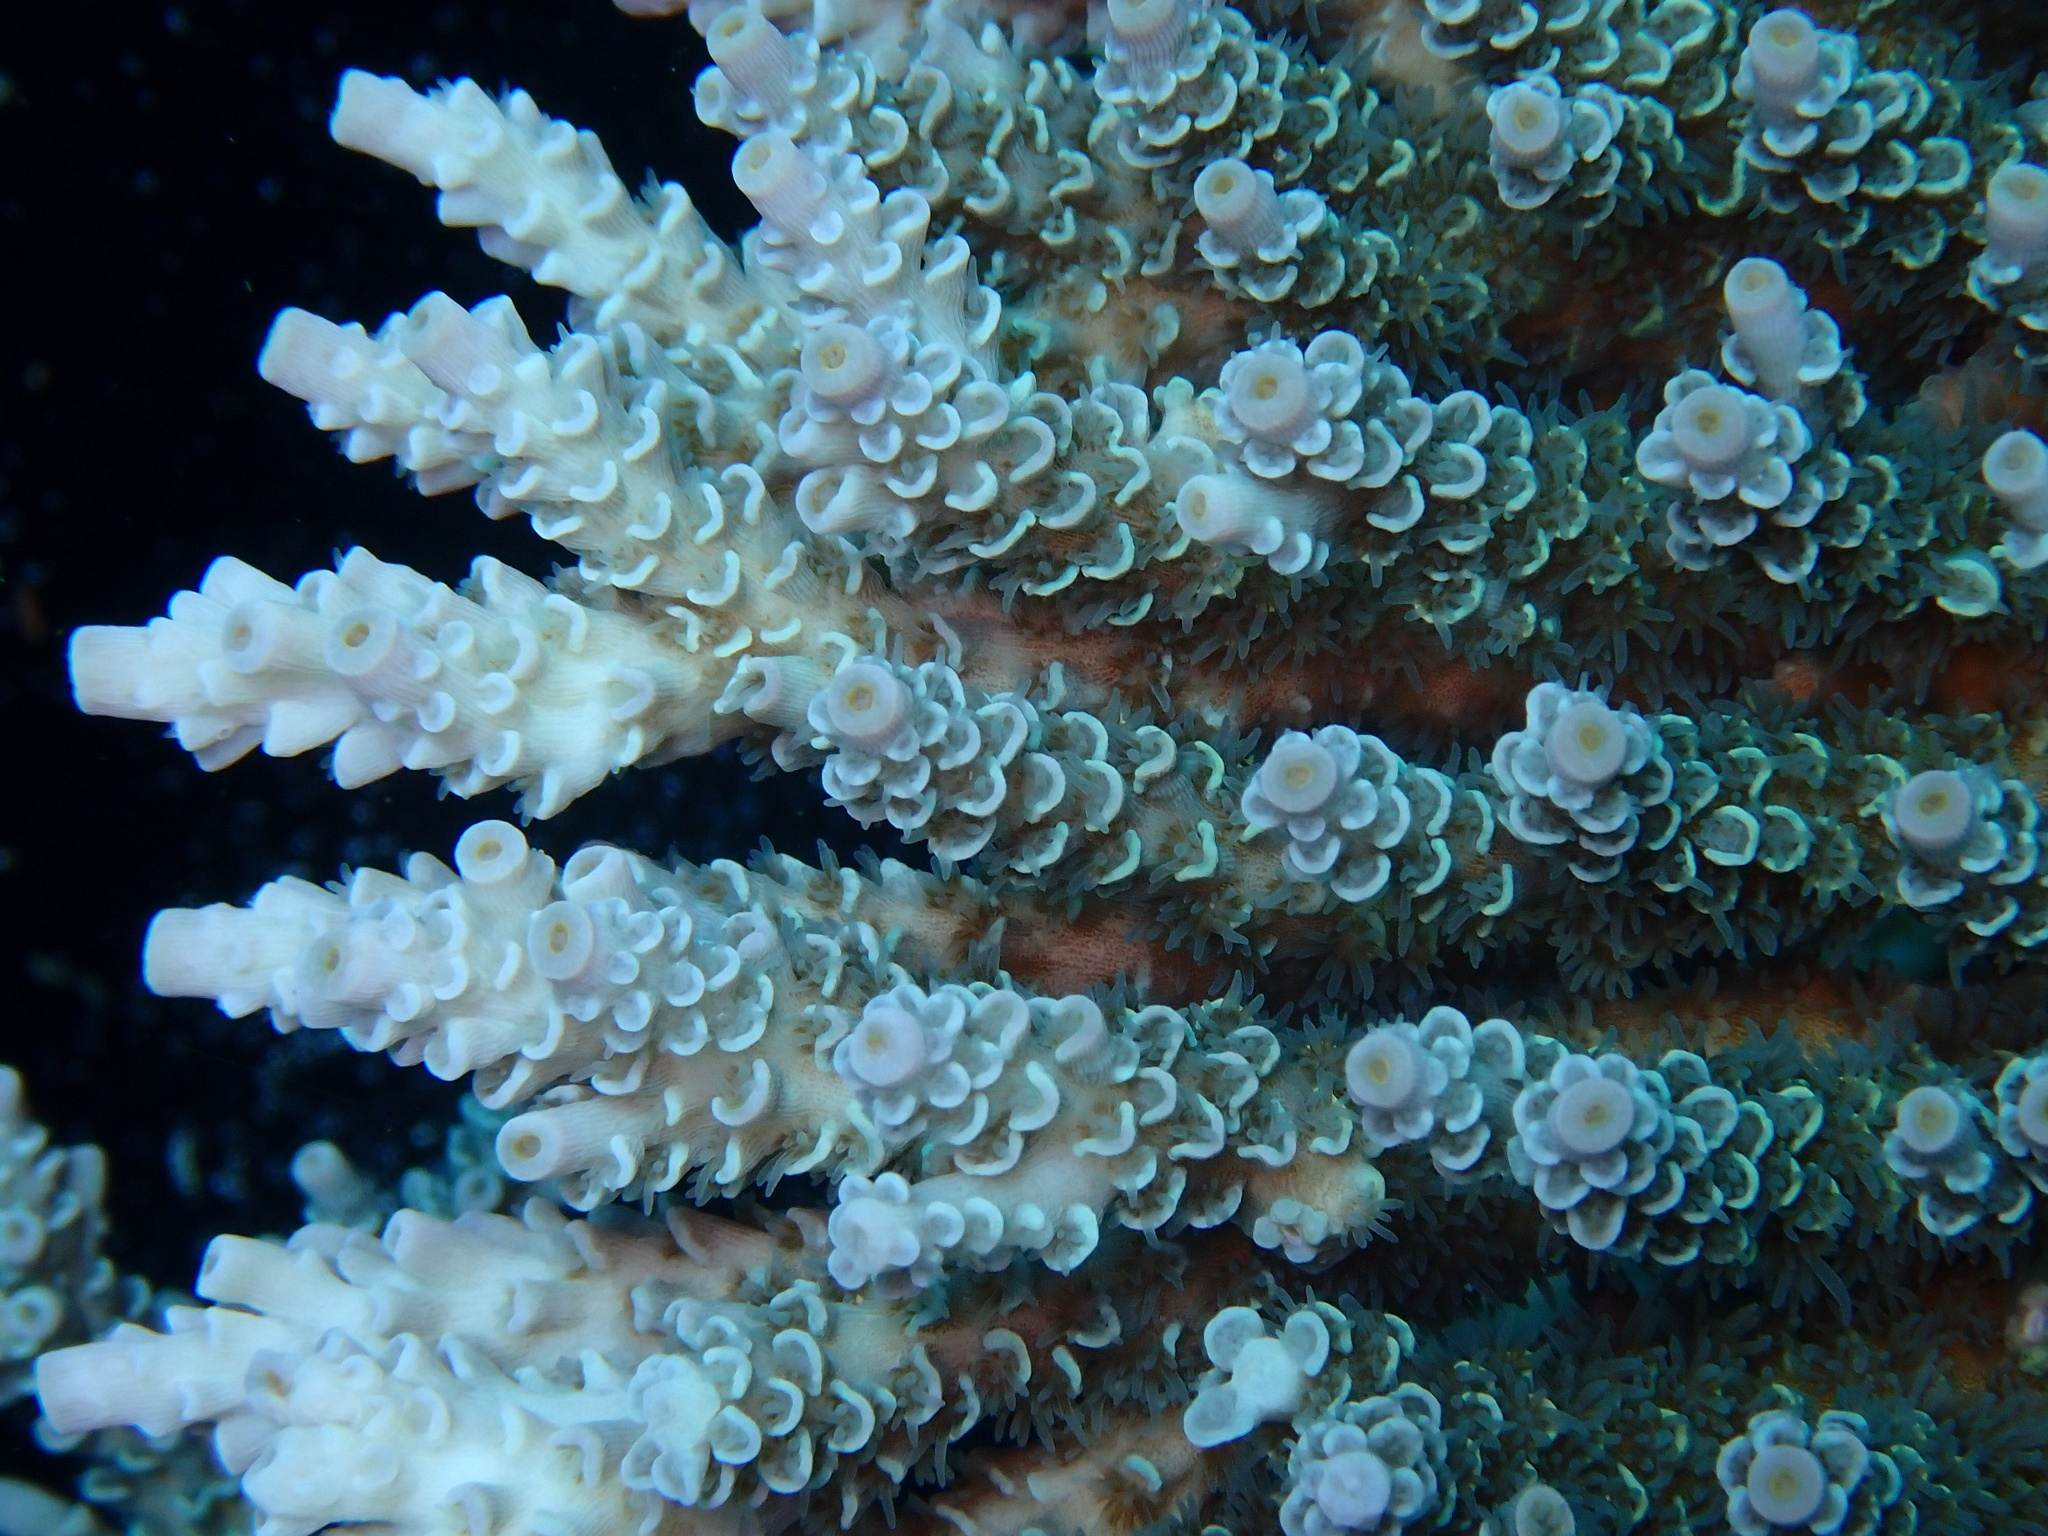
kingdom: Animalia
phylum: Cnidaria
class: Anthozoa
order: Scleractinia
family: Acroporidae
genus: Acropora
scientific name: Acropora tenuis
